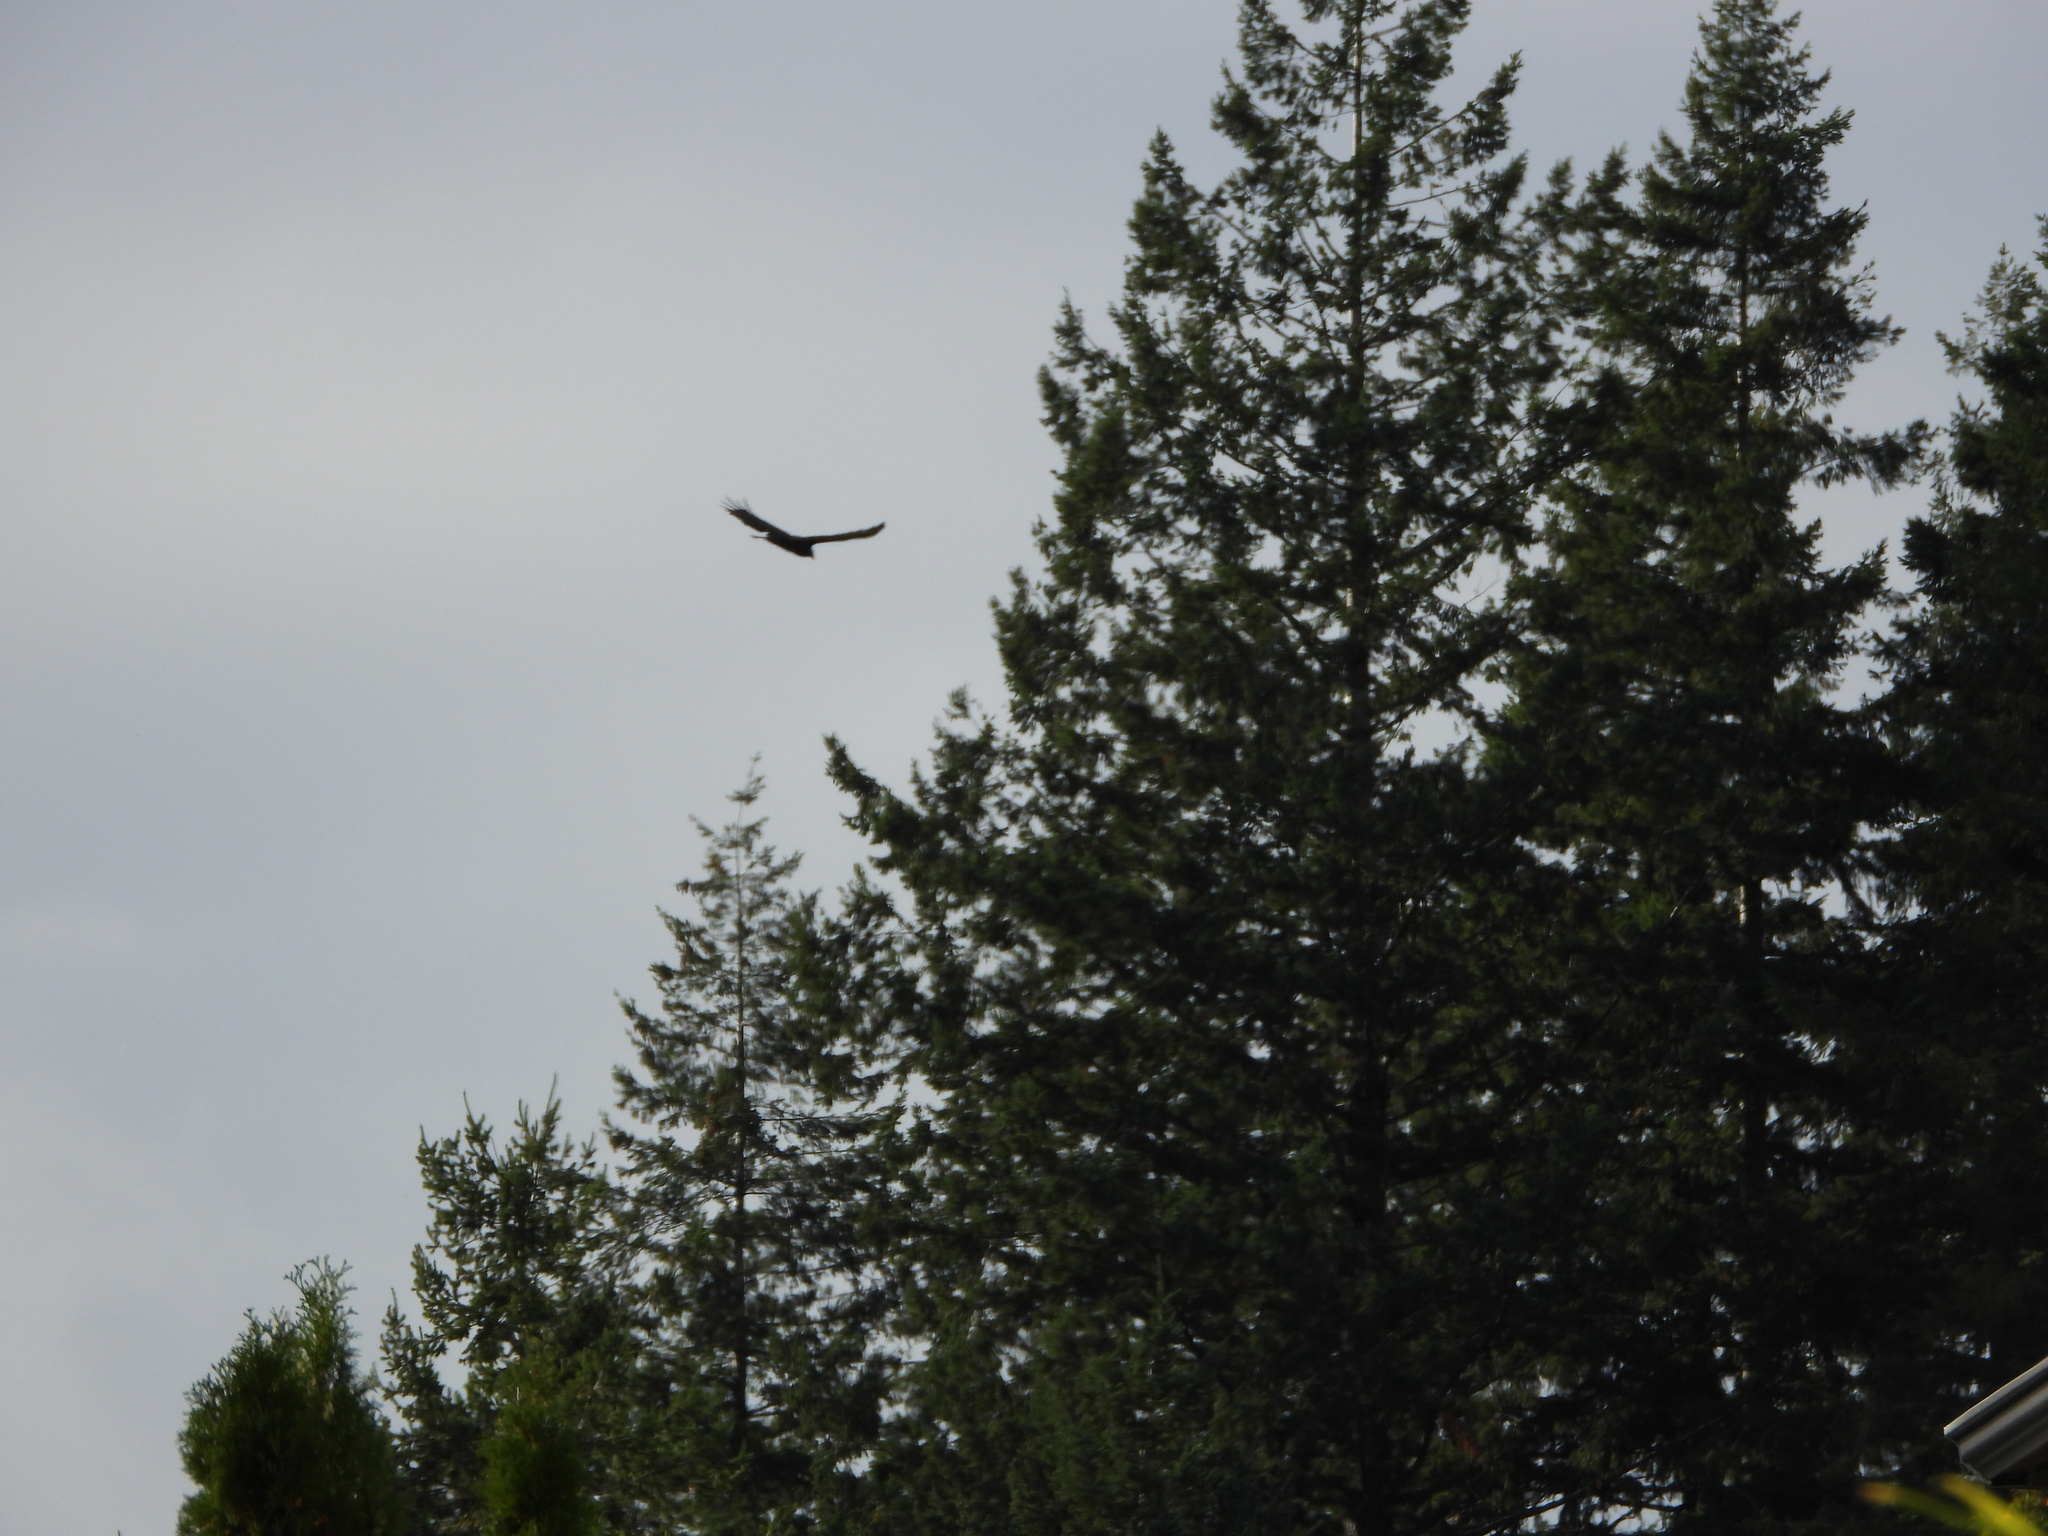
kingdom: Animalia
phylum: Chordata
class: Aves
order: Accipitriformes
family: Cathartidae
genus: Cathartes
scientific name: Cathartes aura
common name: Turkey vulture
